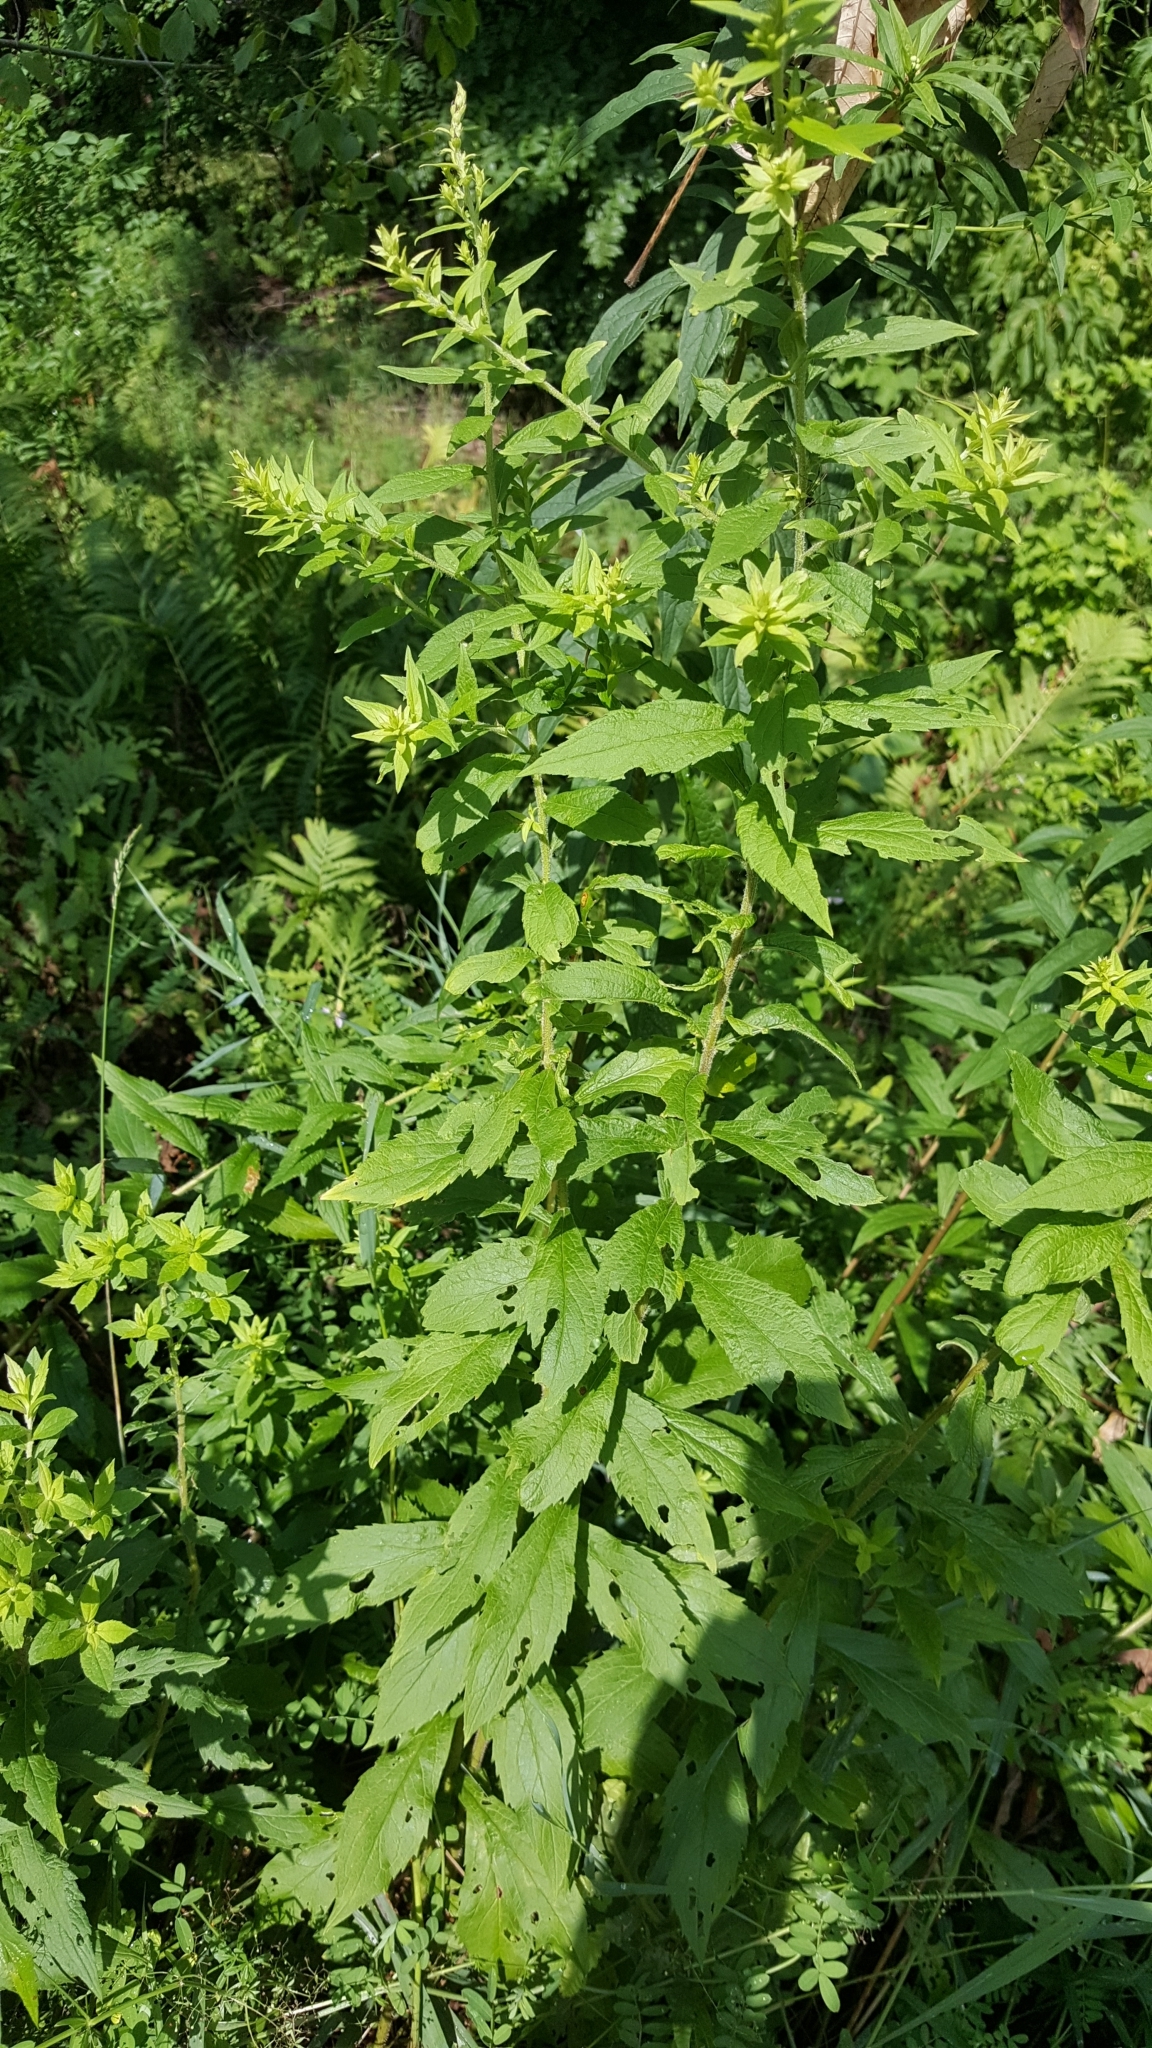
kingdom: Plantae
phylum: Tracheophyta
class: Magnoliopsida
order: Asterales
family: Asteraceae
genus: Solidago
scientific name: Solidago rugosa
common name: Rough-stemmed goldenrod
